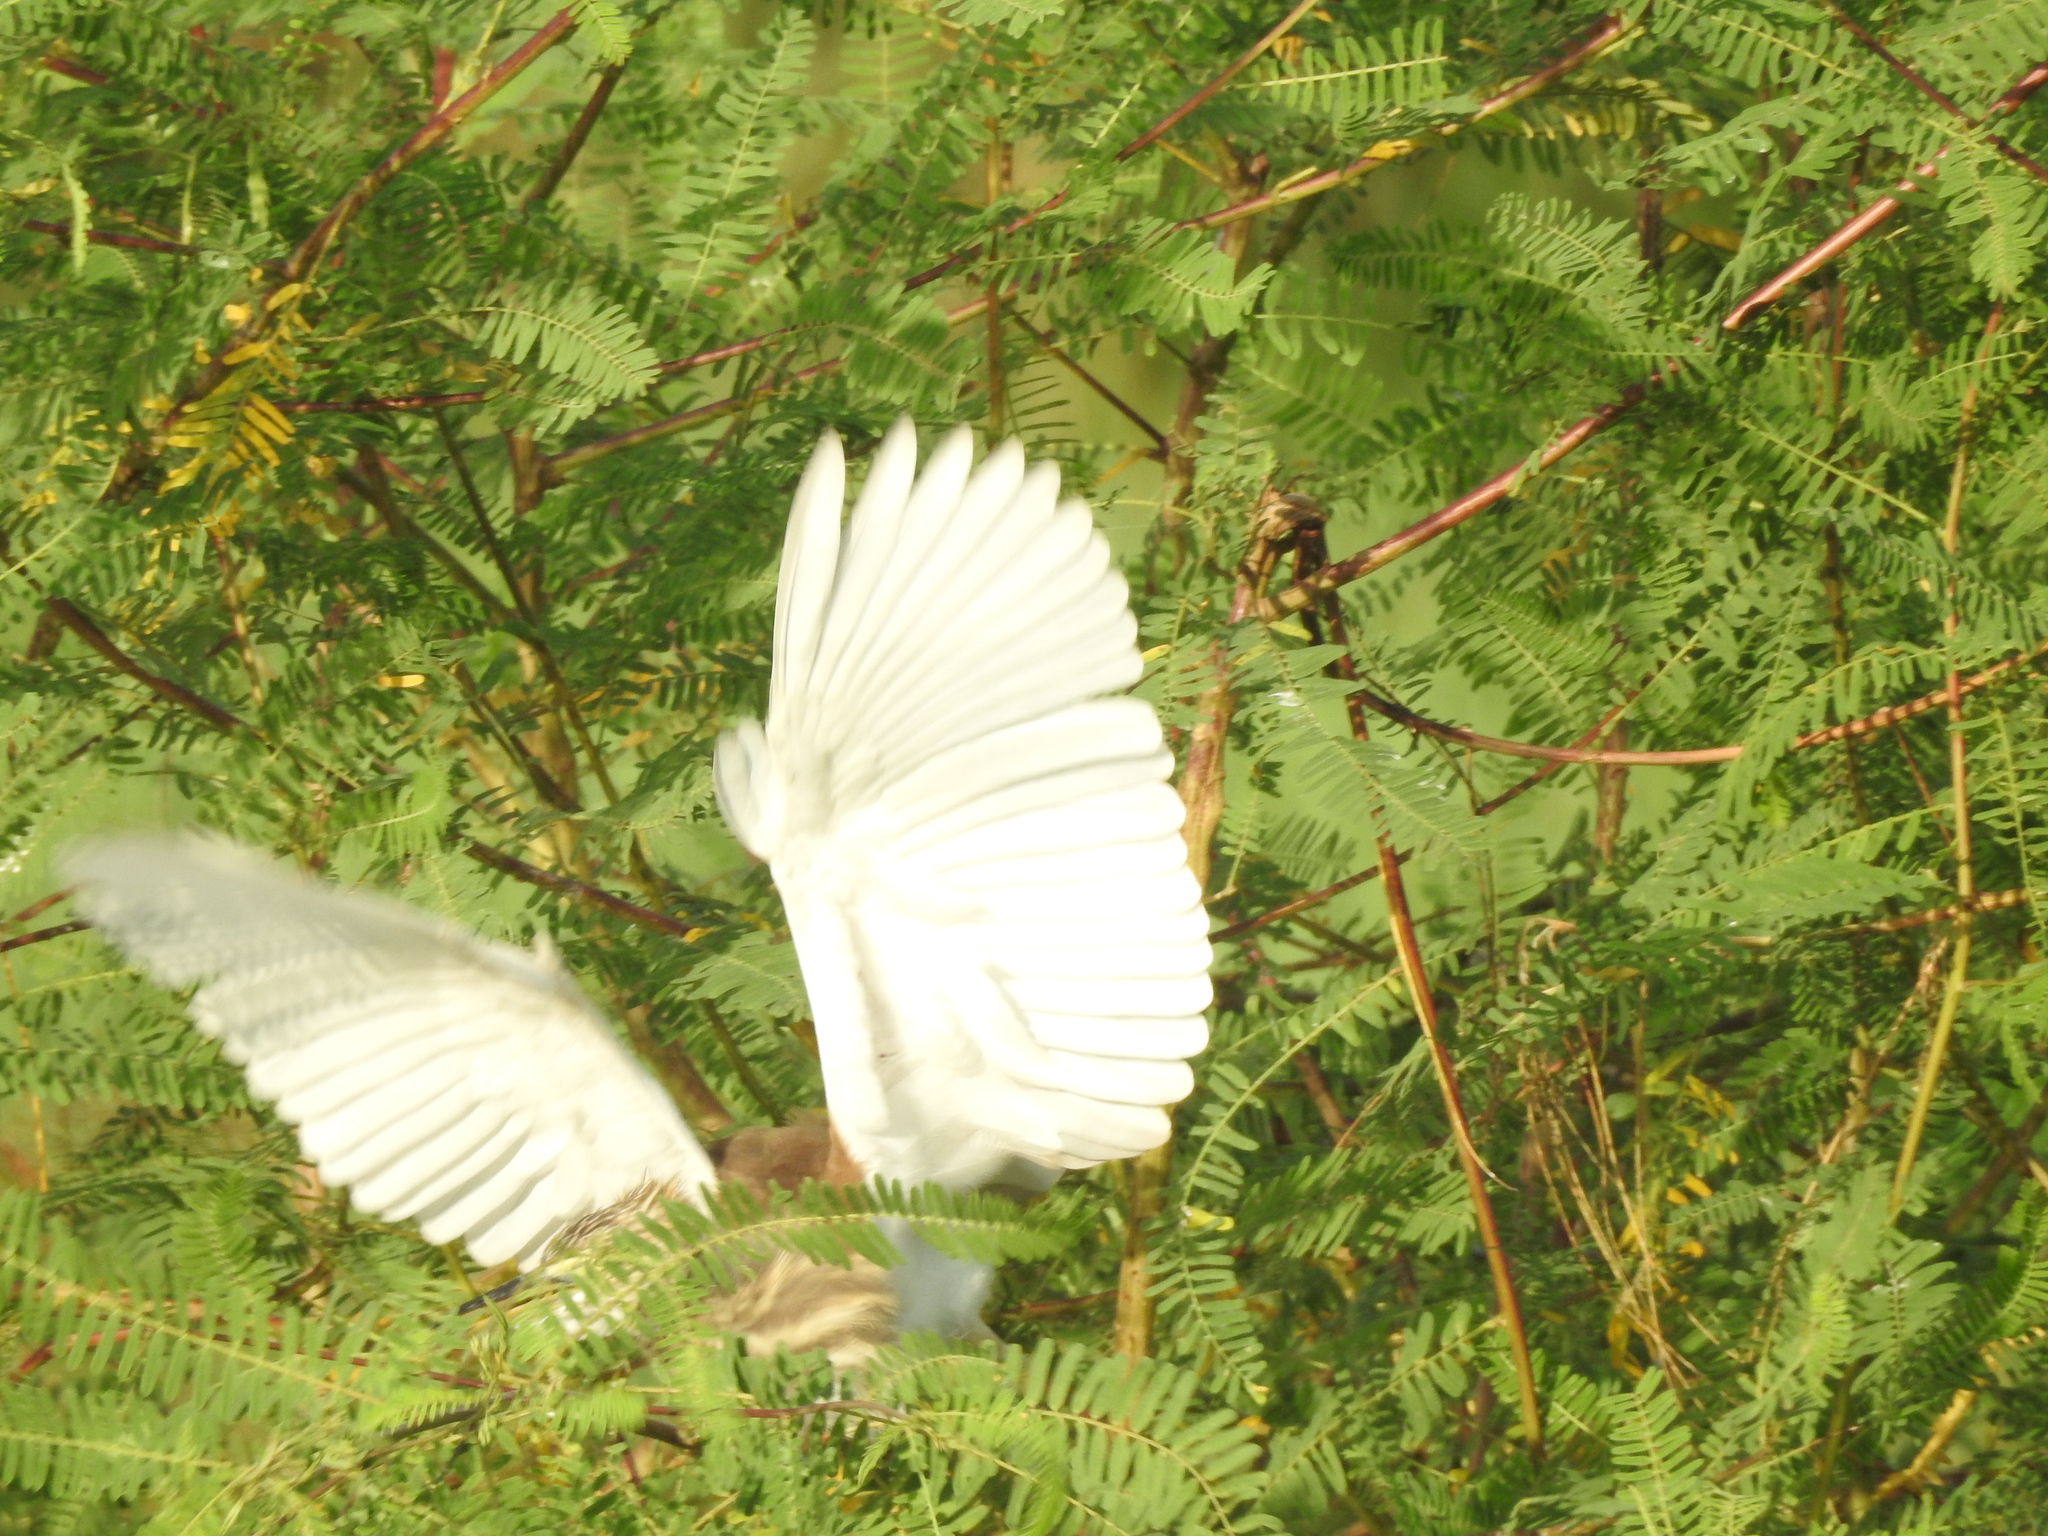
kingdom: Animalia
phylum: Chordata
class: Aves
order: Pelecaniformes
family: Ardeidae
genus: Ardeola
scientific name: Ardeola grayii
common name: Indian pond heron
